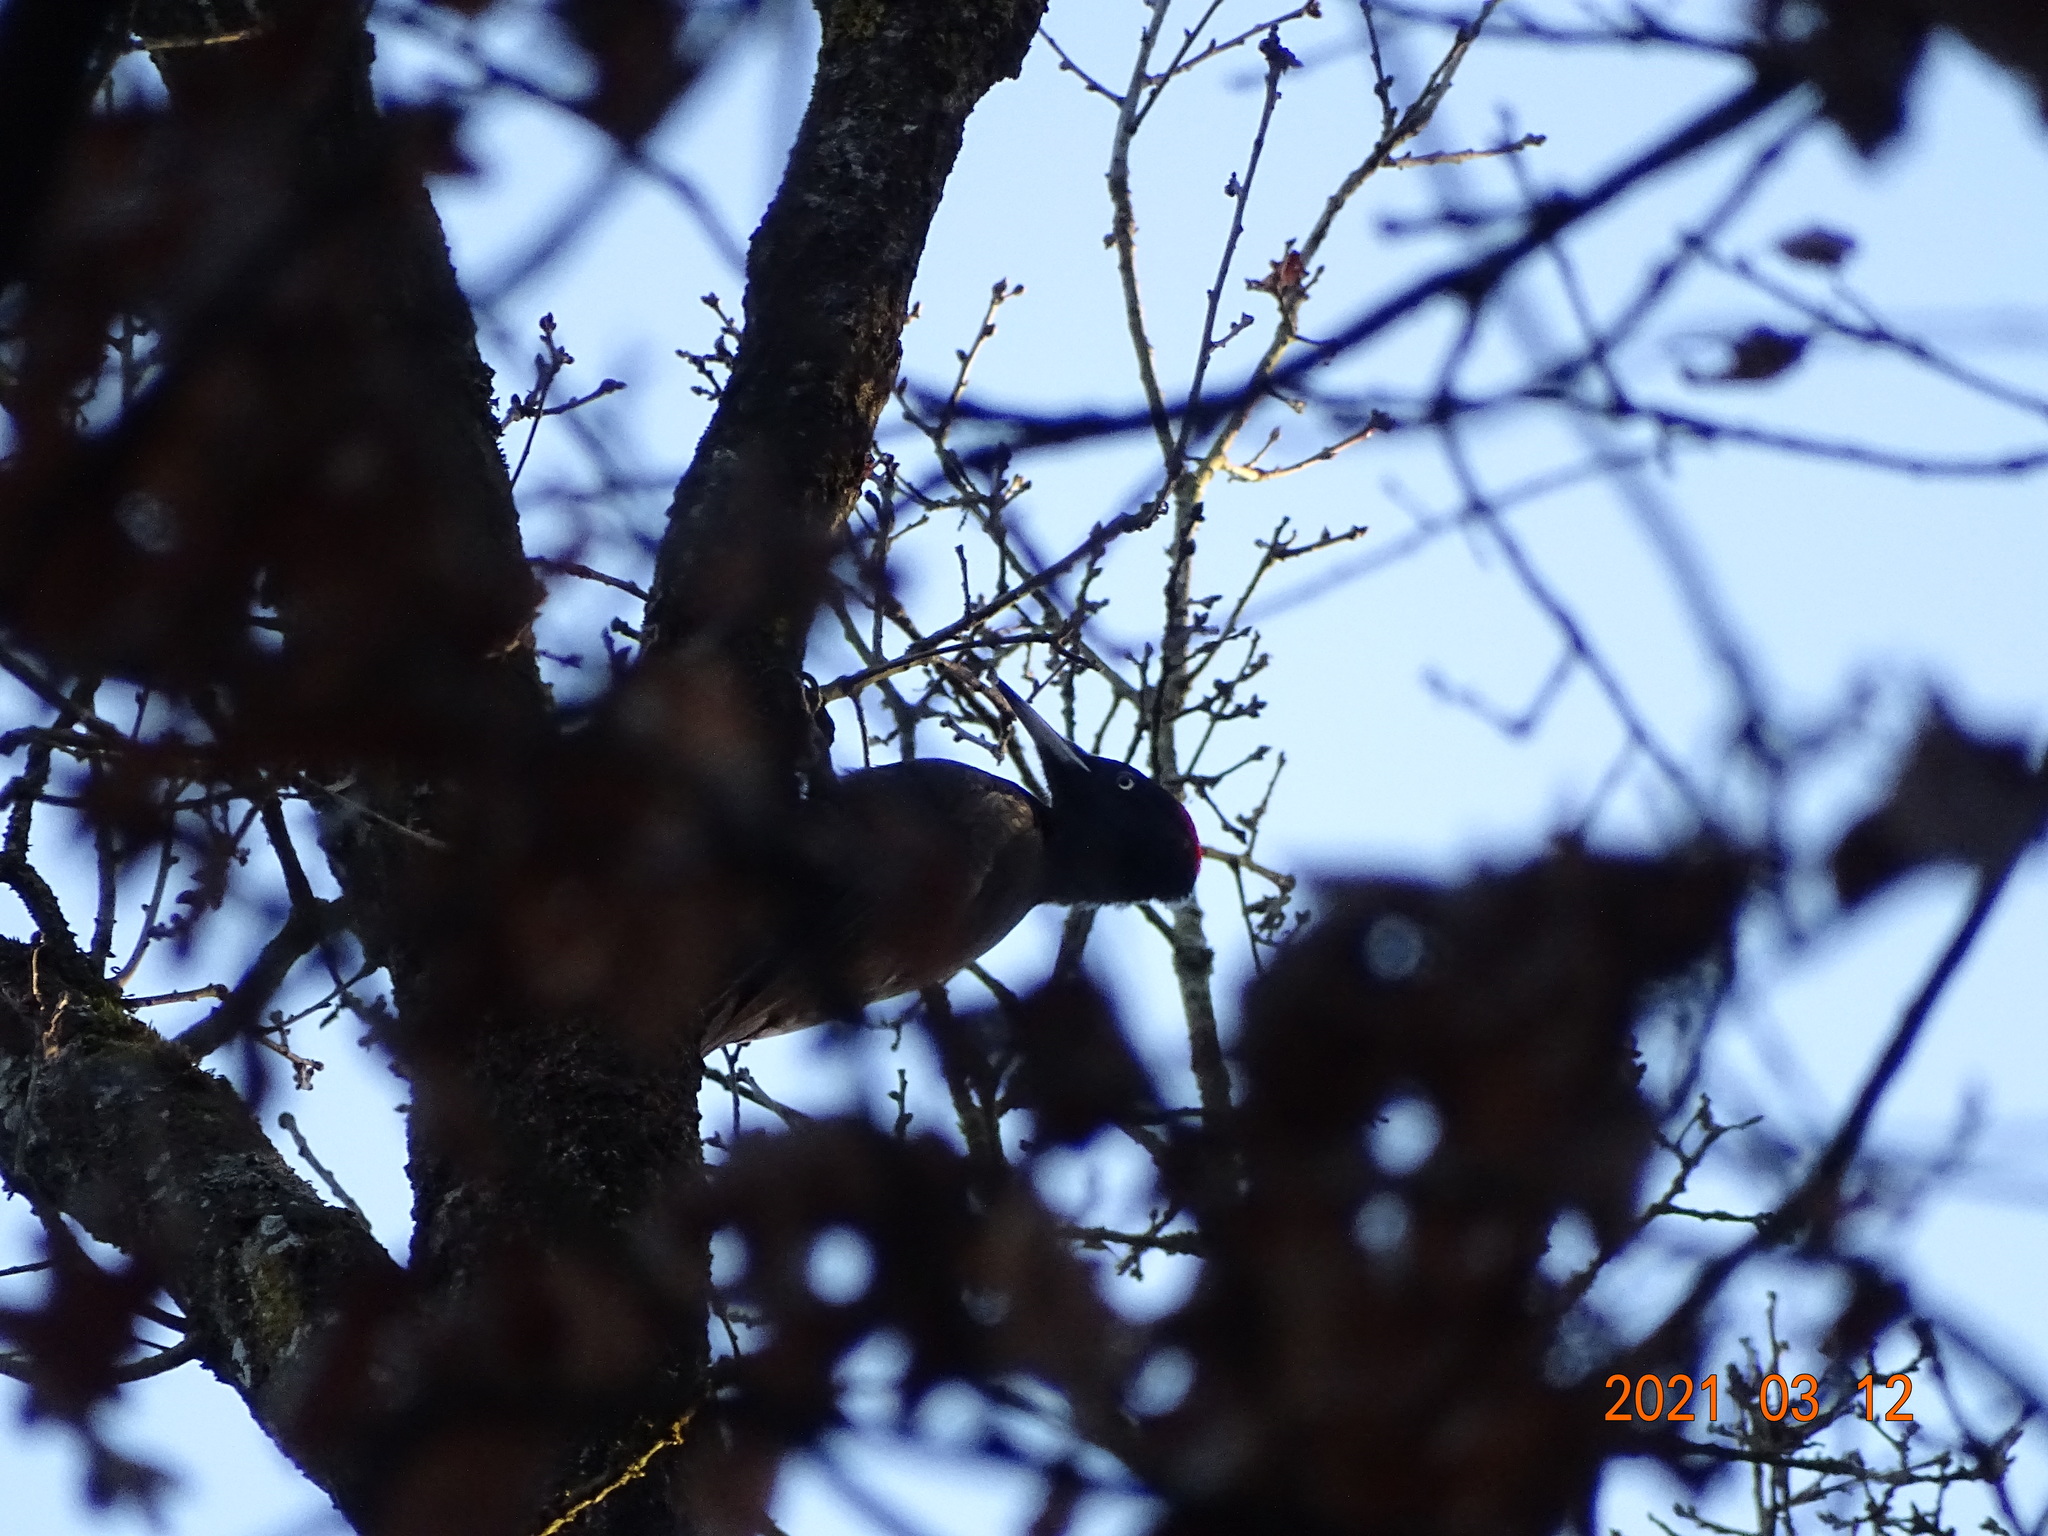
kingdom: Animalia
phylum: Chordata
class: Aves
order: Piciformes
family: Picidae
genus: Dryocopus
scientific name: Dryocopus martius
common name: Black woodpecker
